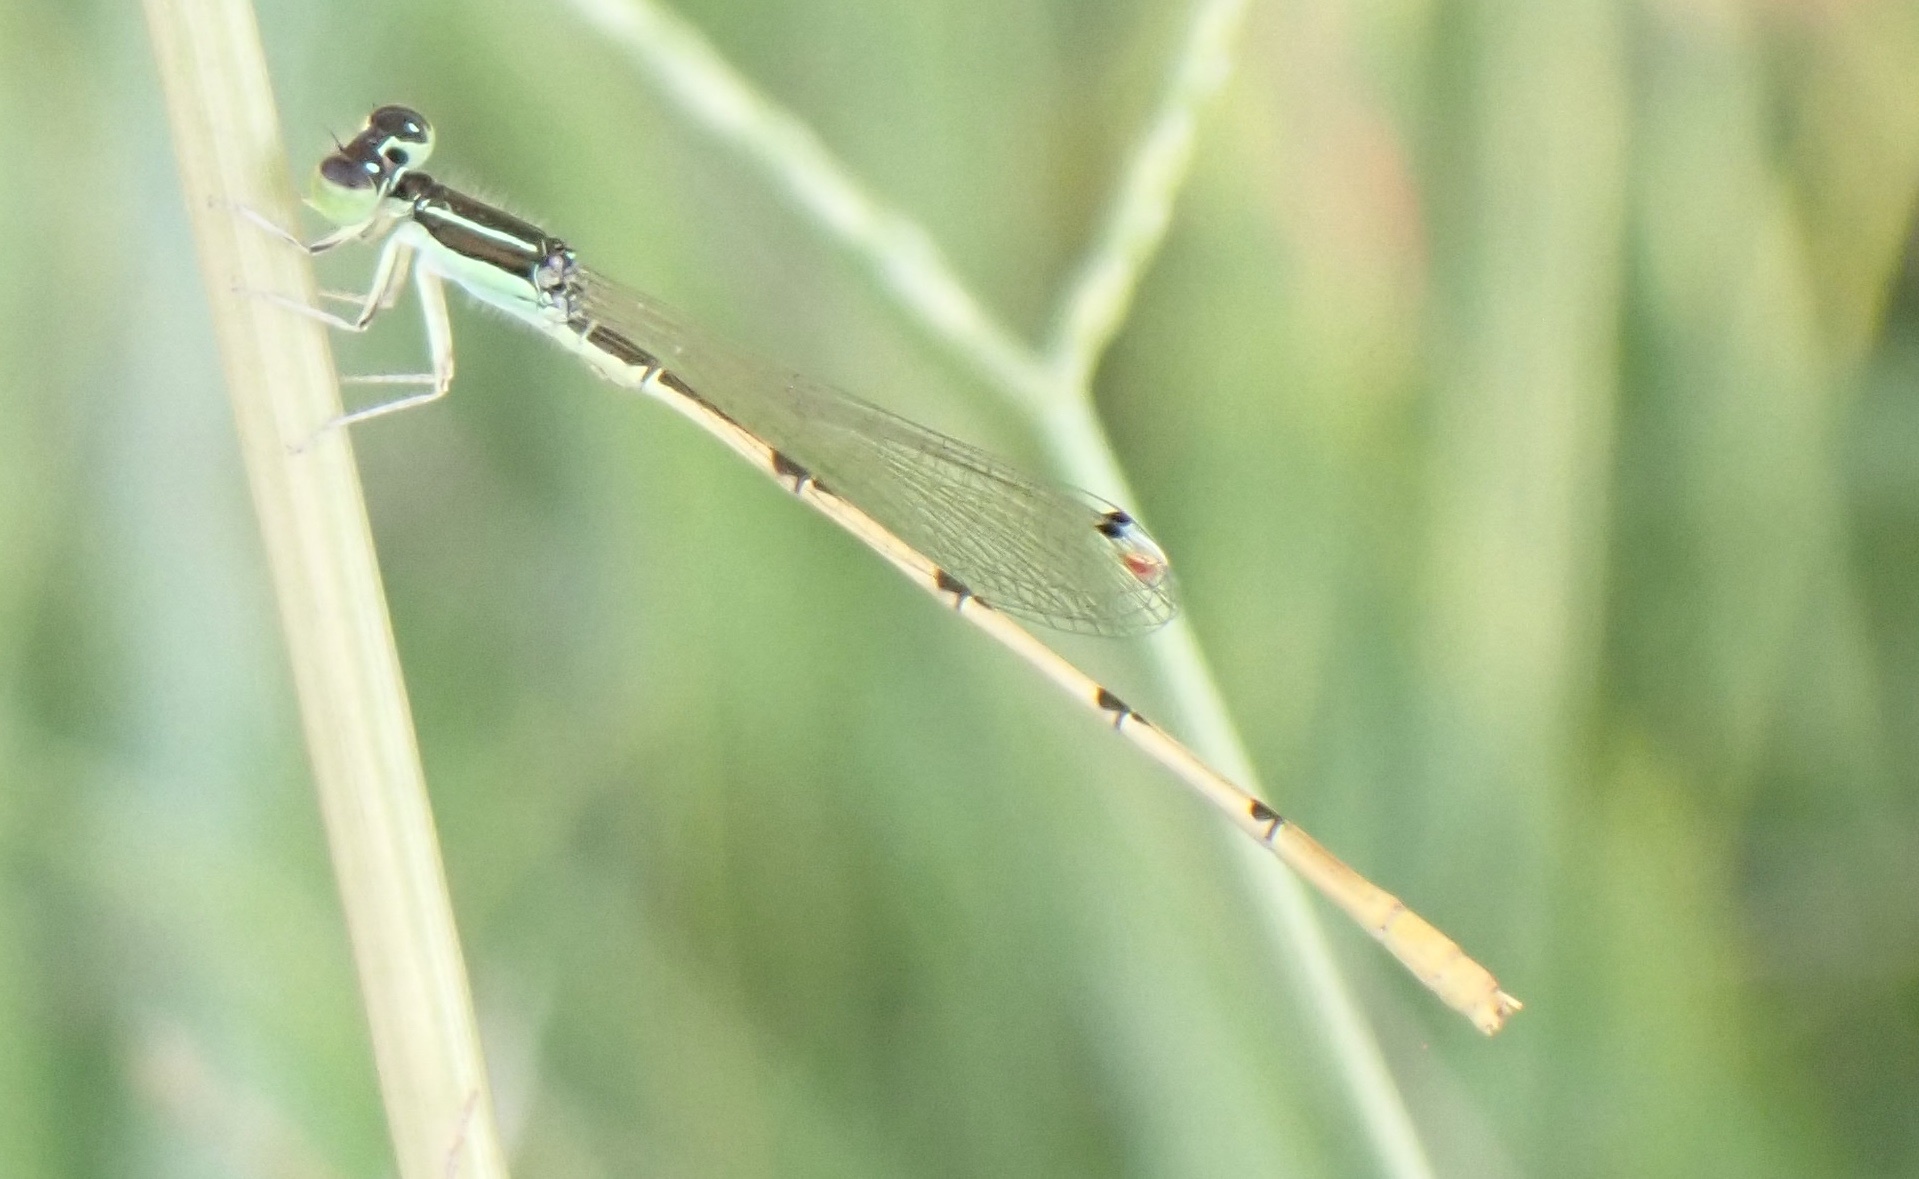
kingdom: Animalia
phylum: Arthropoda
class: Insecta
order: Odonata
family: Coenagrionidae
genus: Ischnura
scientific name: Ischnura hastata
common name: Citrine forktail
